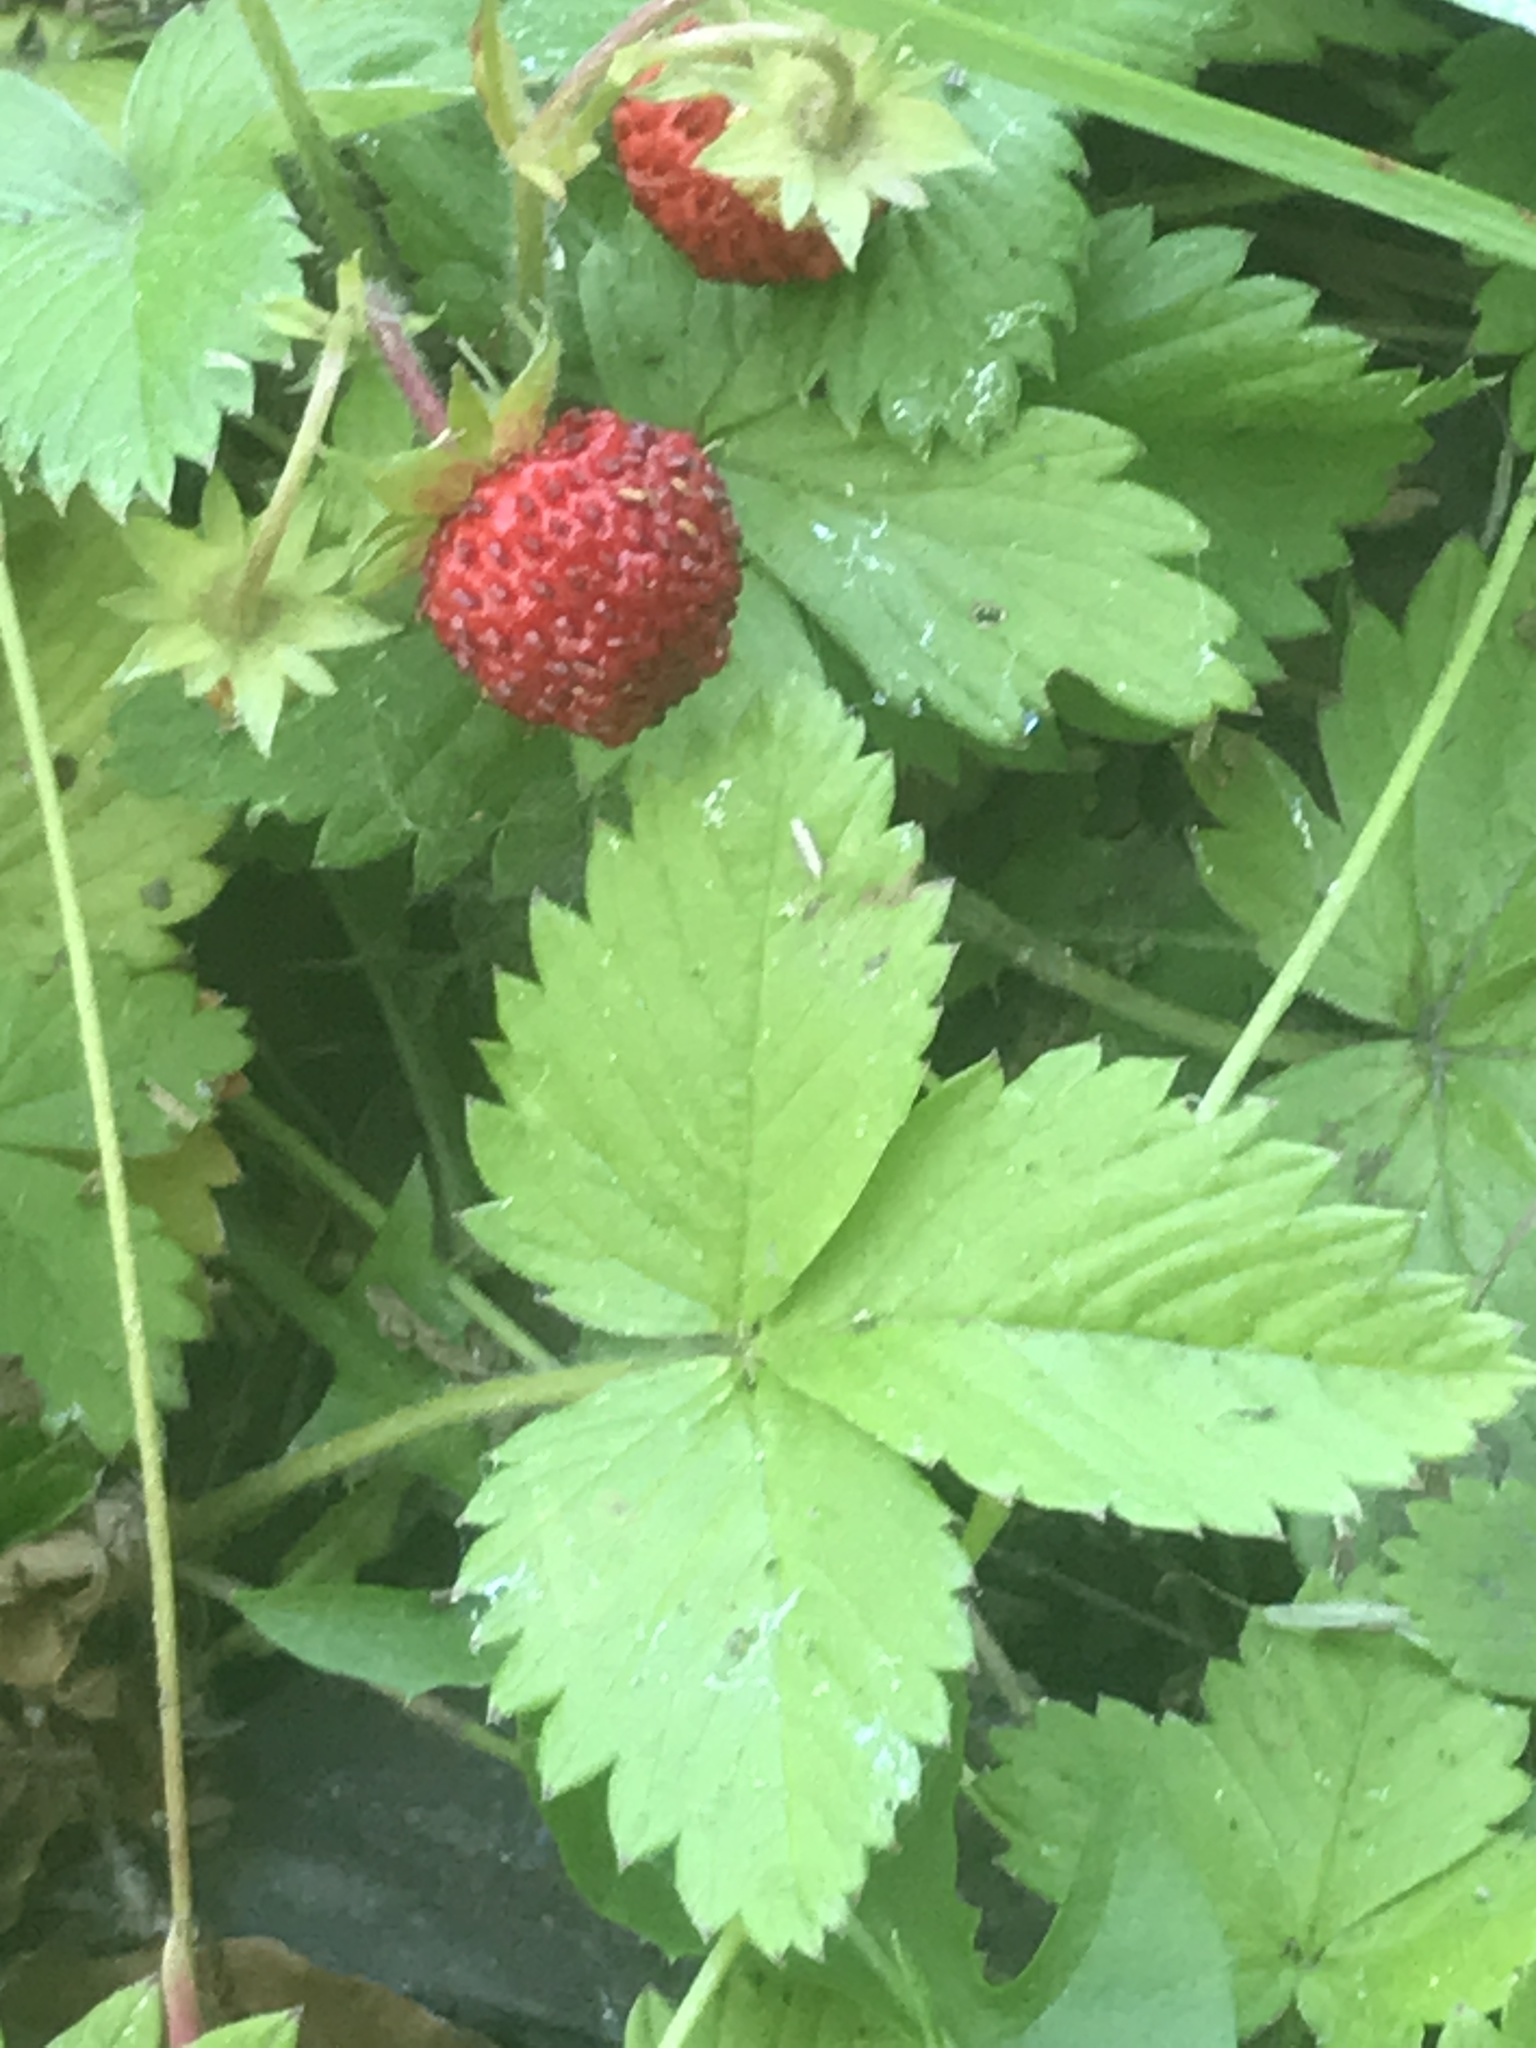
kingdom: Plantae
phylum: Tracheophyta
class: Magnoliopsida
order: Rosales
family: Rosaceae
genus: Potentilla
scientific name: Potentilla indica
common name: Yellow-flowered strawberry
